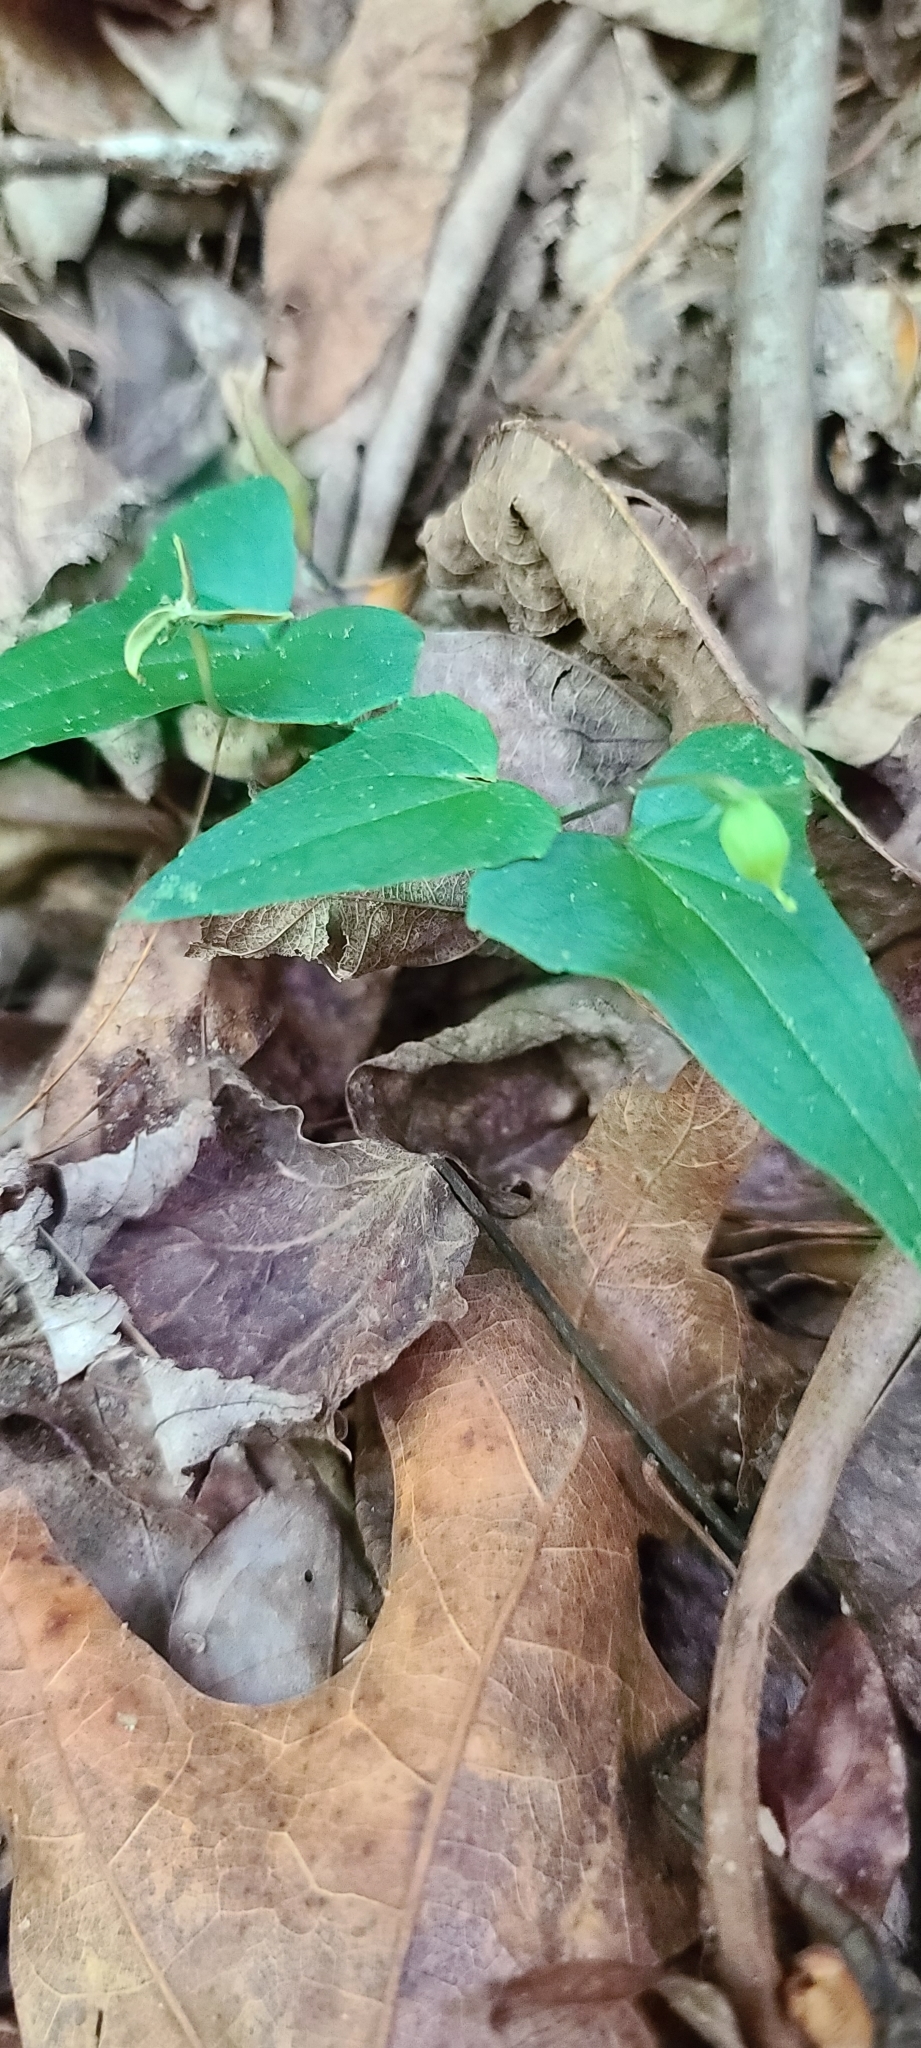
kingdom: Plantae
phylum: Tracheophyta
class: Magnoliopsida
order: Malpighiales
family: Violaceae
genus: Viola
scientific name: Viola hastata
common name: Spear-leaf violet
